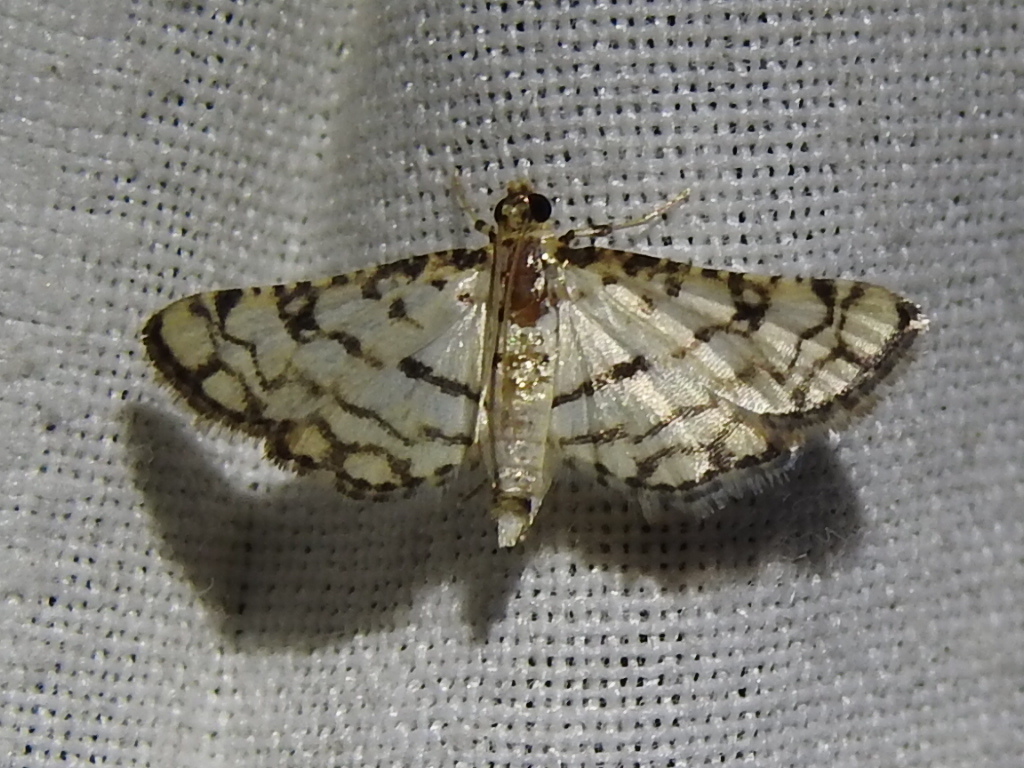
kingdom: Animalia
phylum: Arthropoda
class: Insecta
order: Lepidoptera
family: Crambidae
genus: Hileithia
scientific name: Hileithia rehamalis
